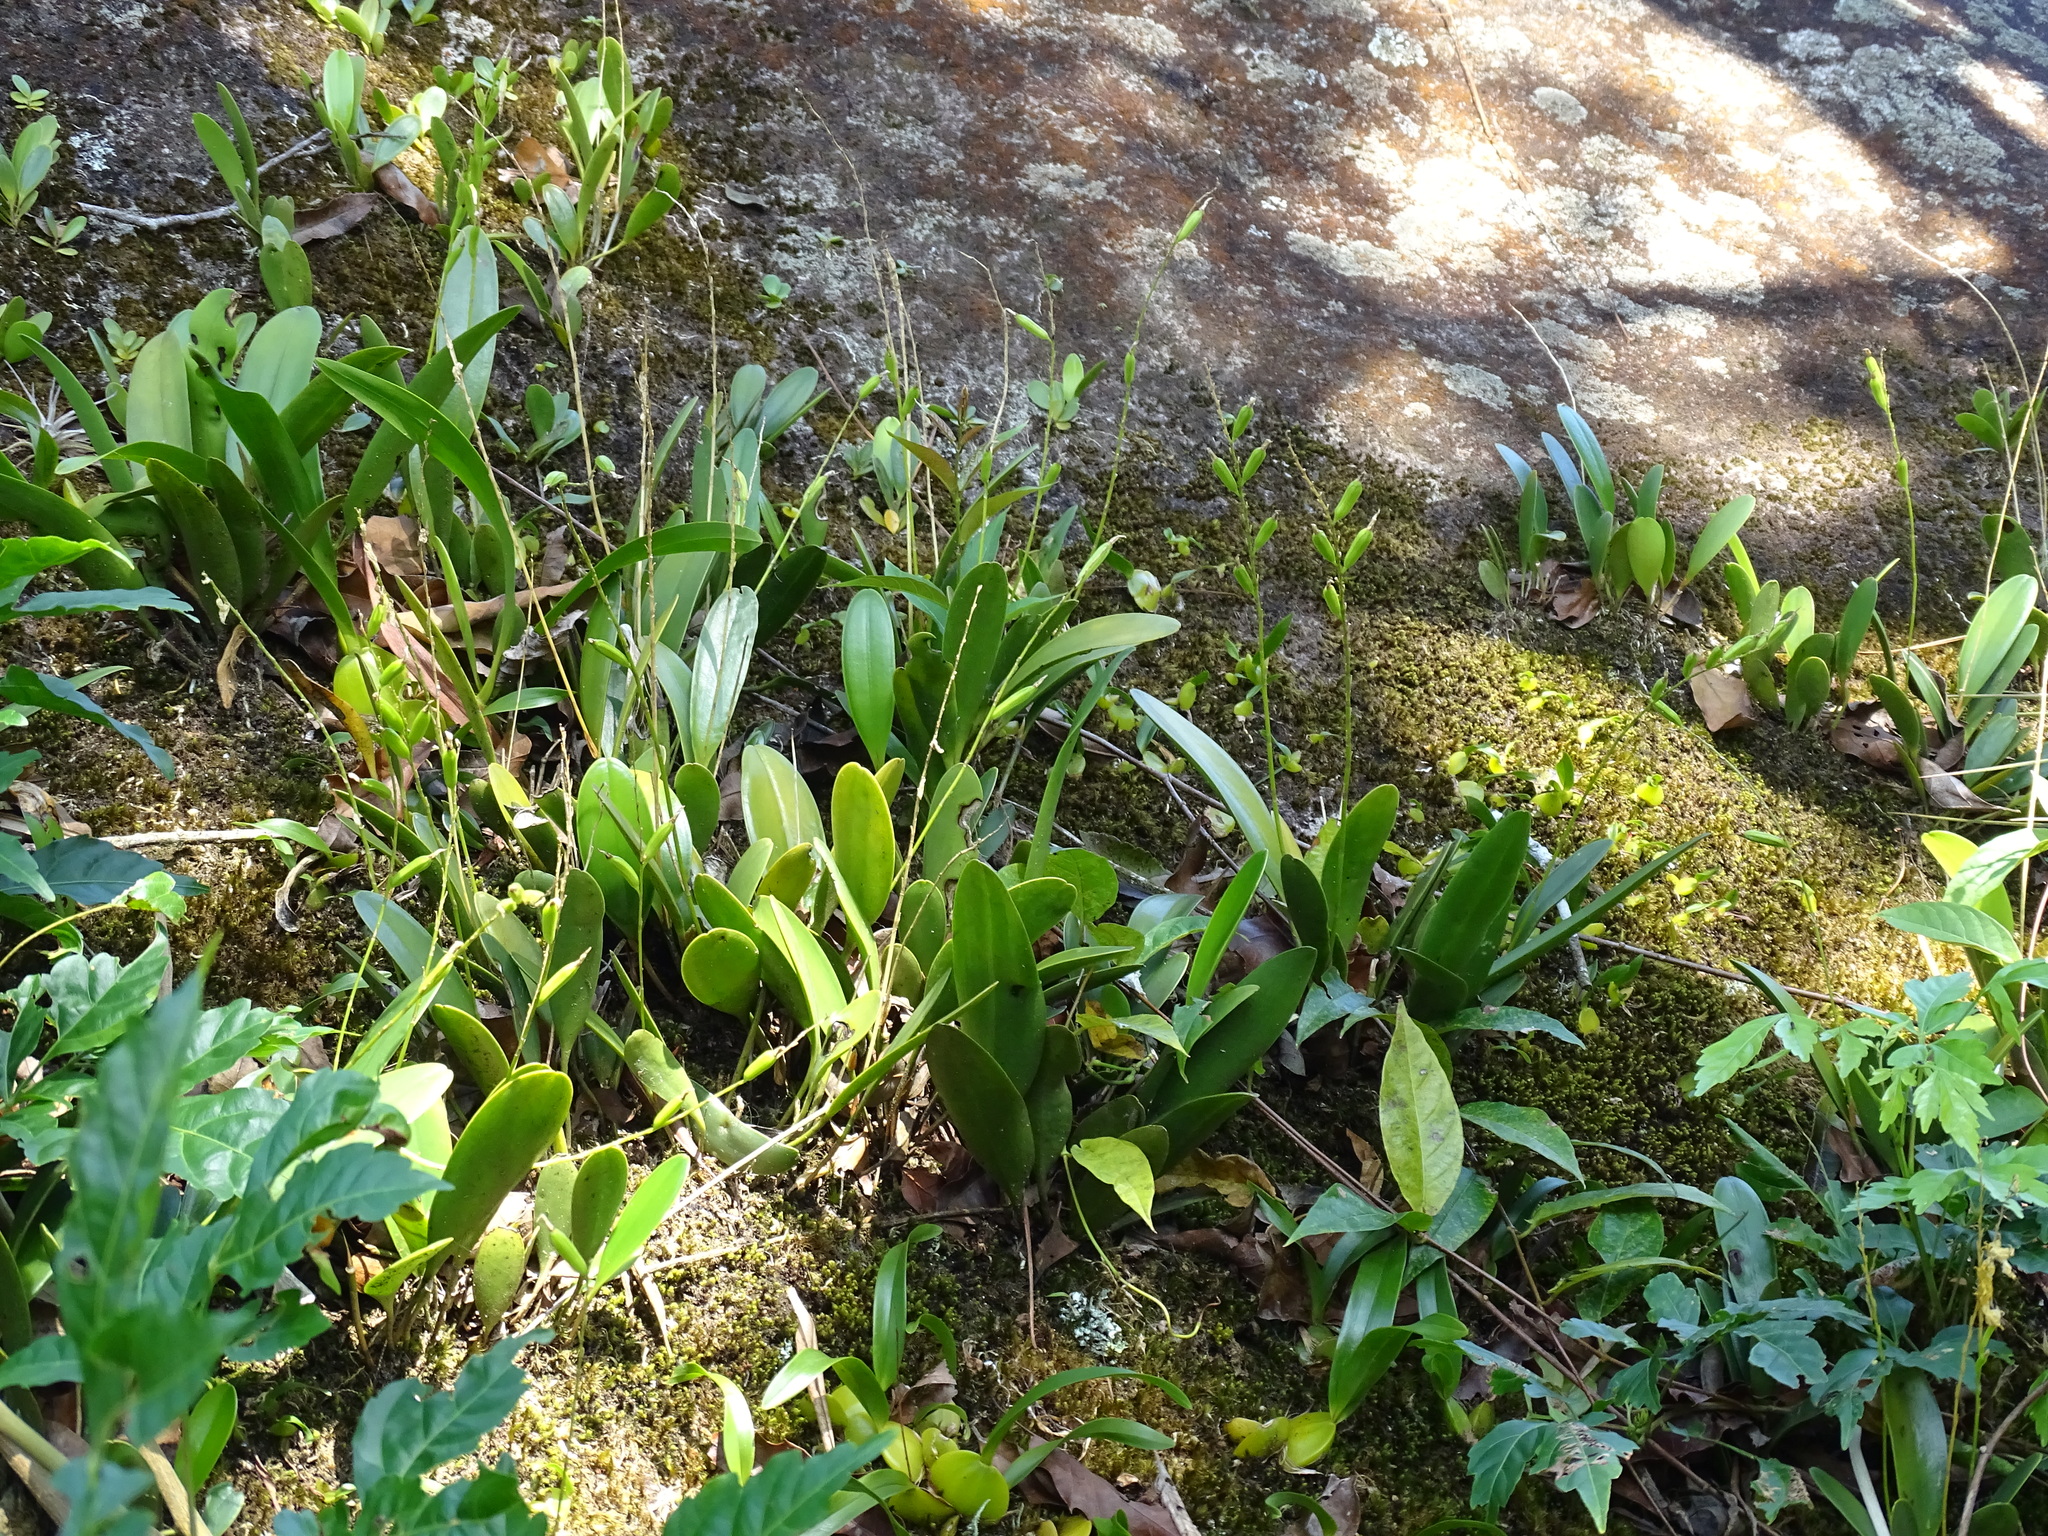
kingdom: Plantae
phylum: Tracheophyta
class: Liliopsida
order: Asparagales
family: Orchidaceae
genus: Pleurothallis
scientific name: Pleurothallis quadrifida
